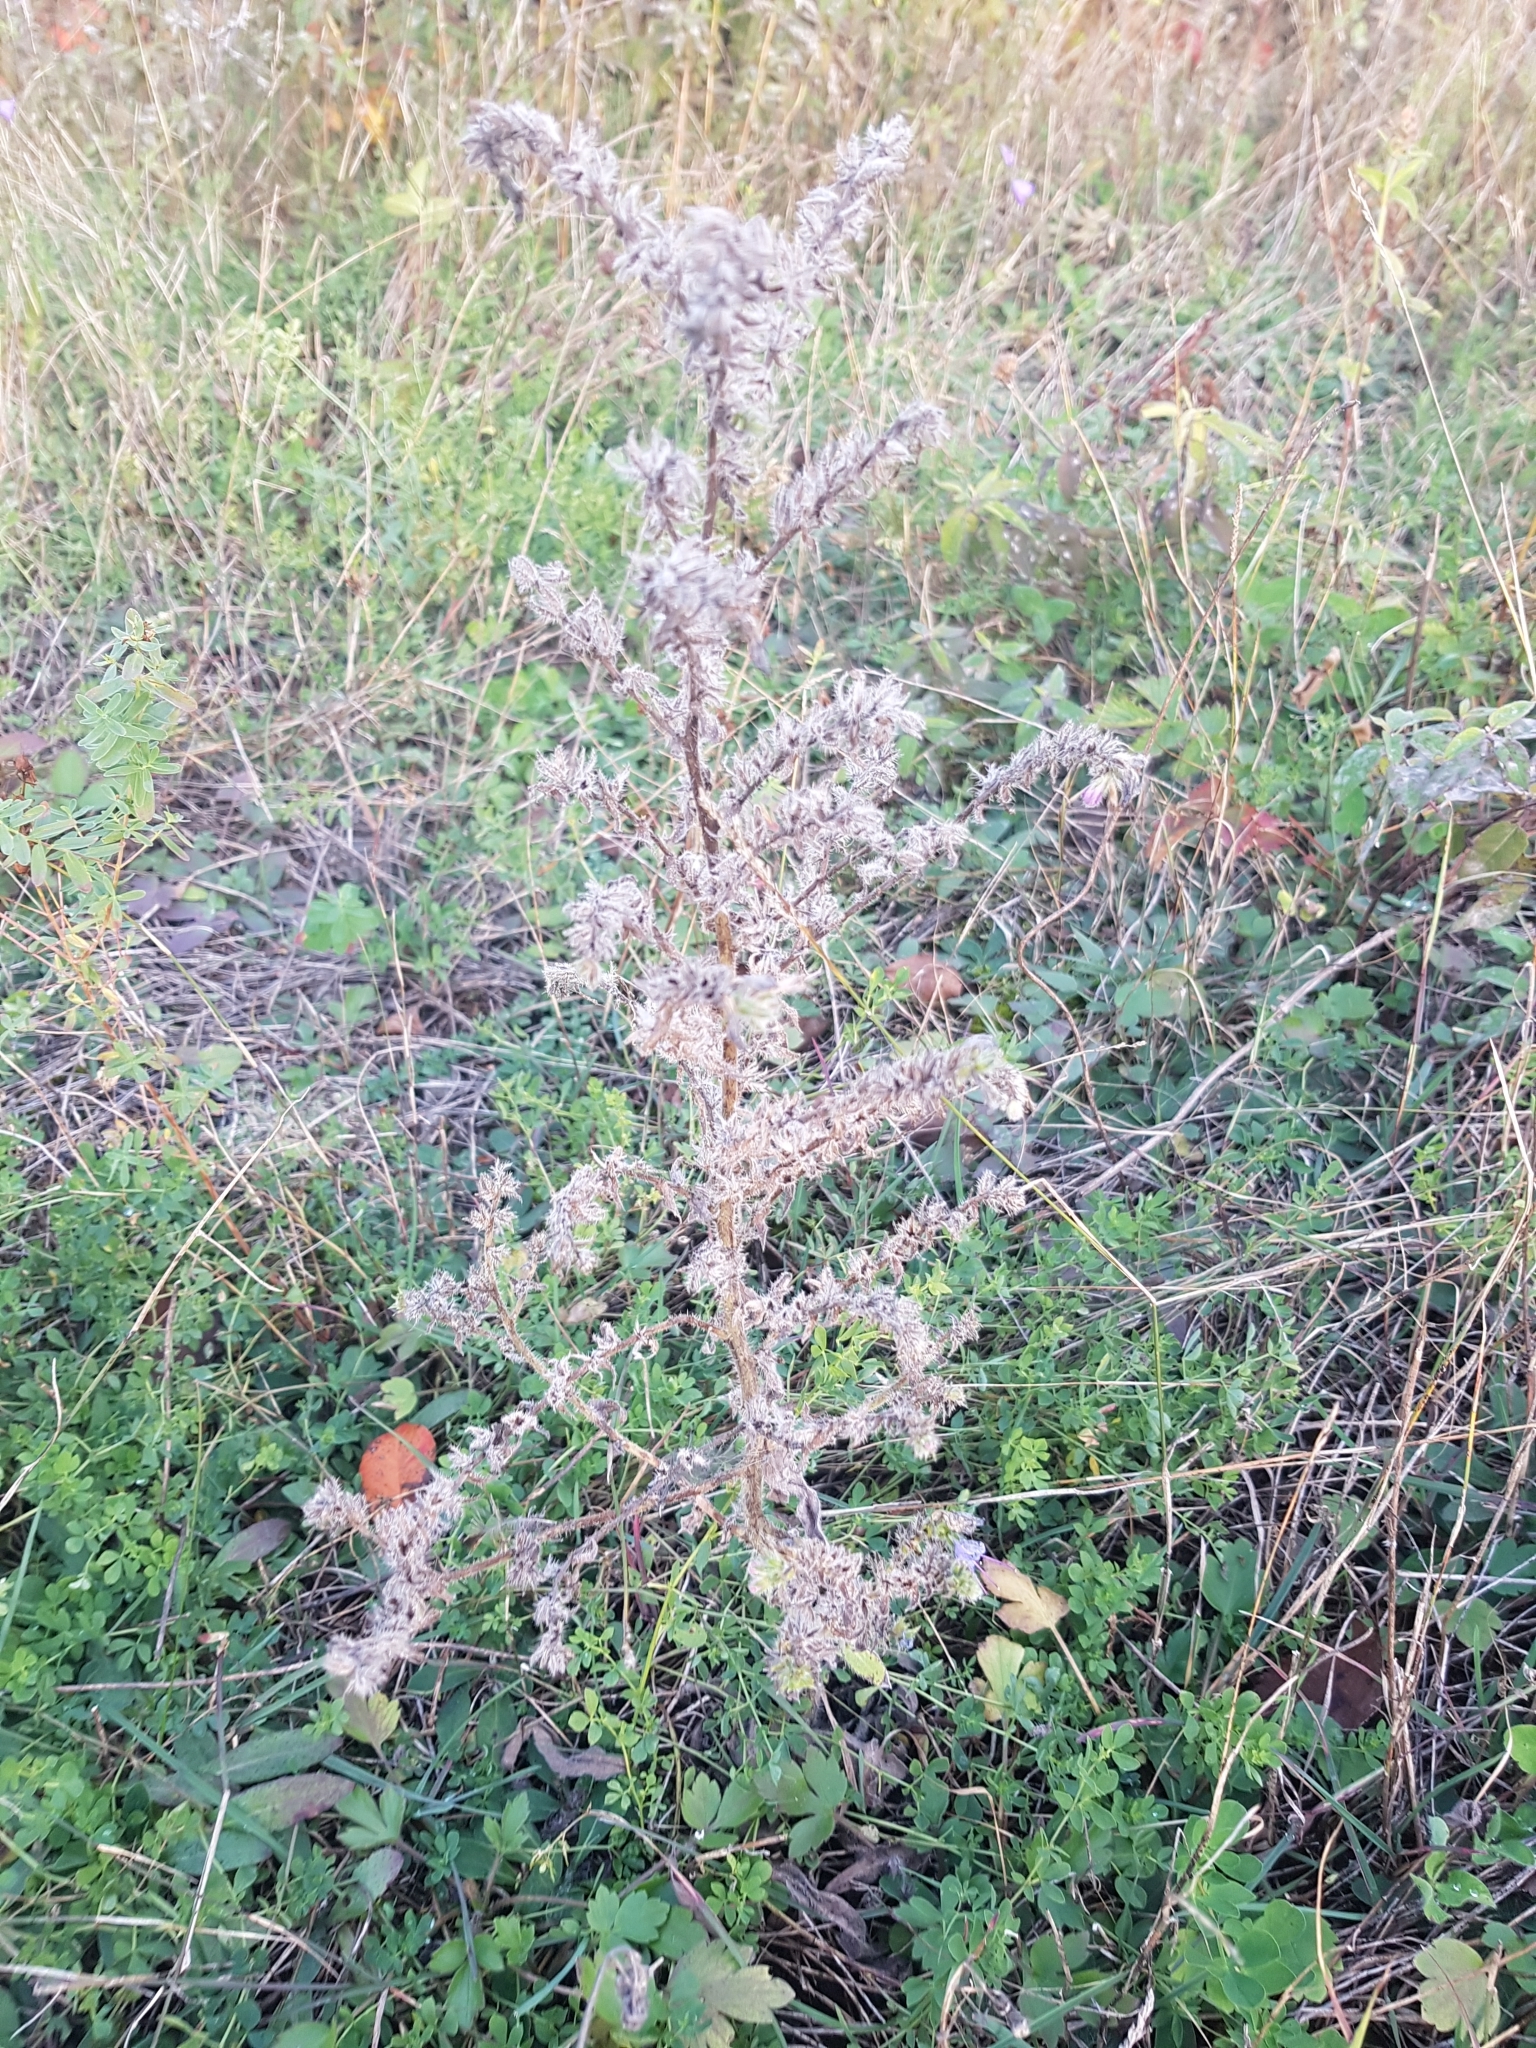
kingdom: Plantae
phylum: Tracheophyta
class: Magnoliopsida
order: Boraginales
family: Boraginaceae
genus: Echium
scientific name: Echium vulgare
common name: Common viper's bugloss
